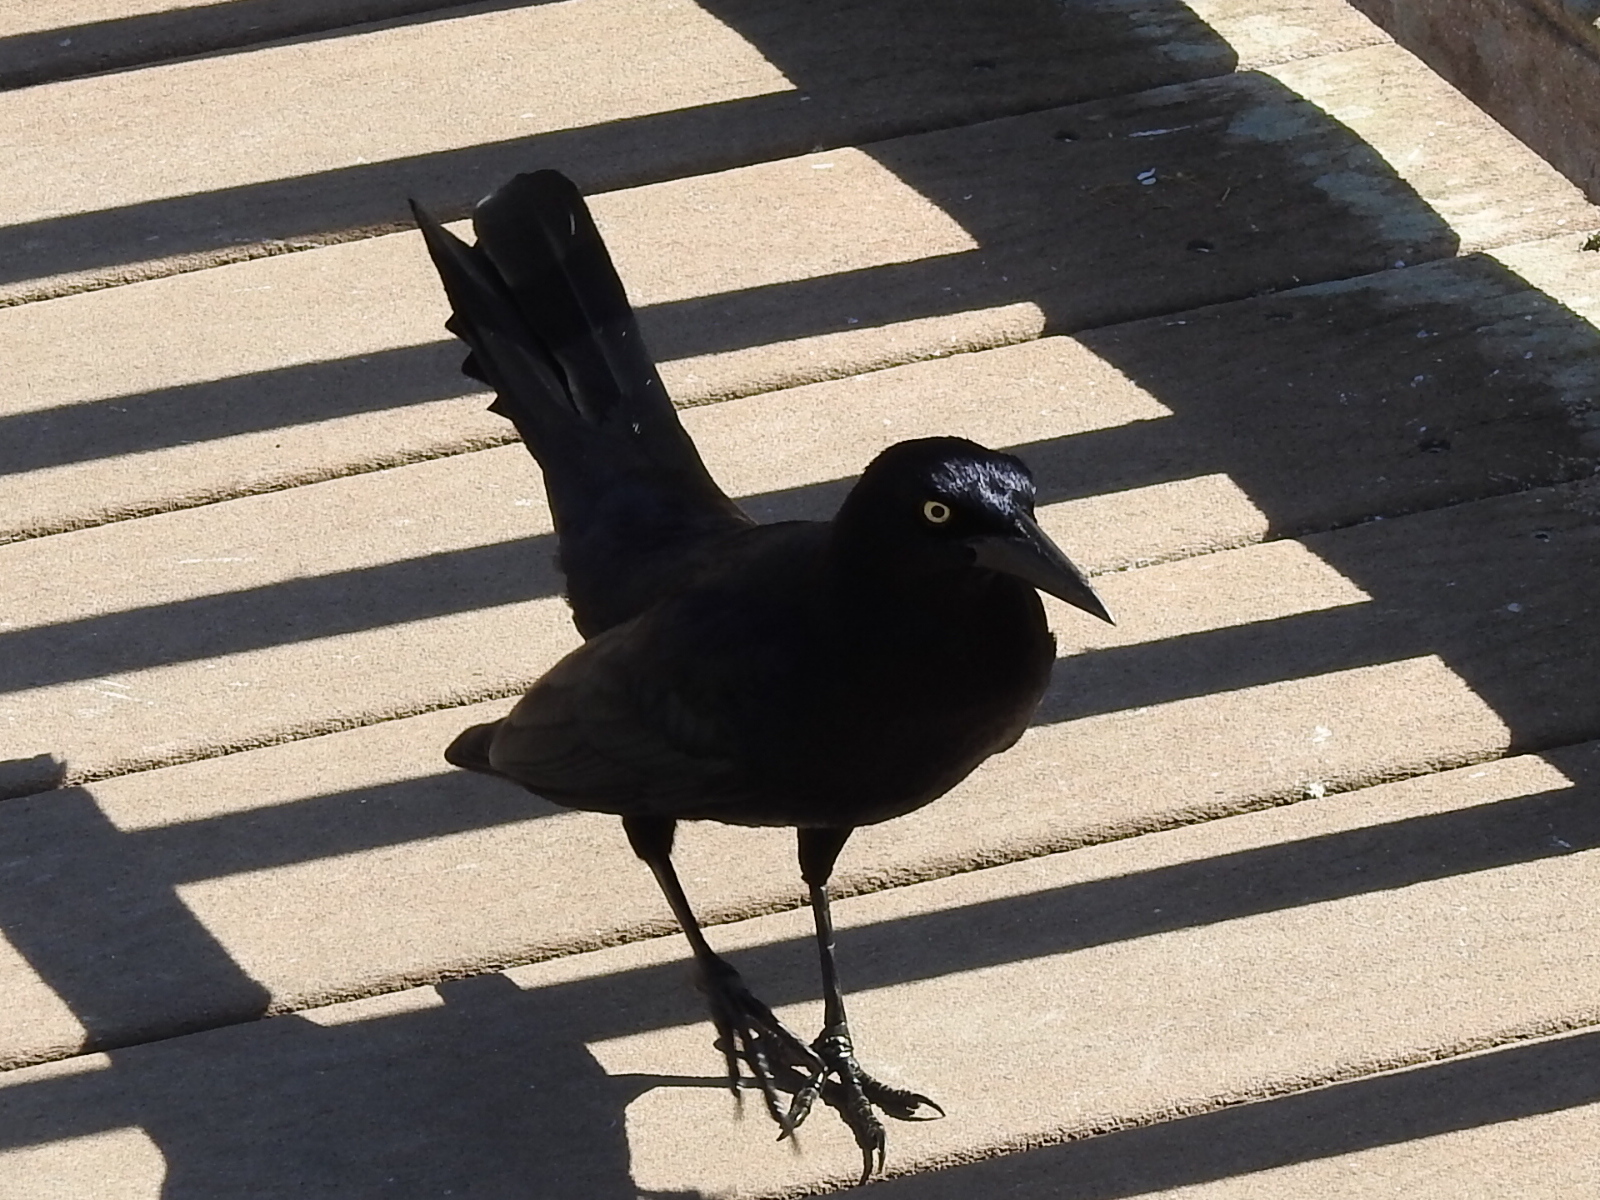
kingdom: Animalia
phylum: Chordata
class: Aves
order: Passeriformes
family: Icteridae
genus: Quiscalus
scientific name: Quiscalus mexicanus
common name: Great-tailed grackle
